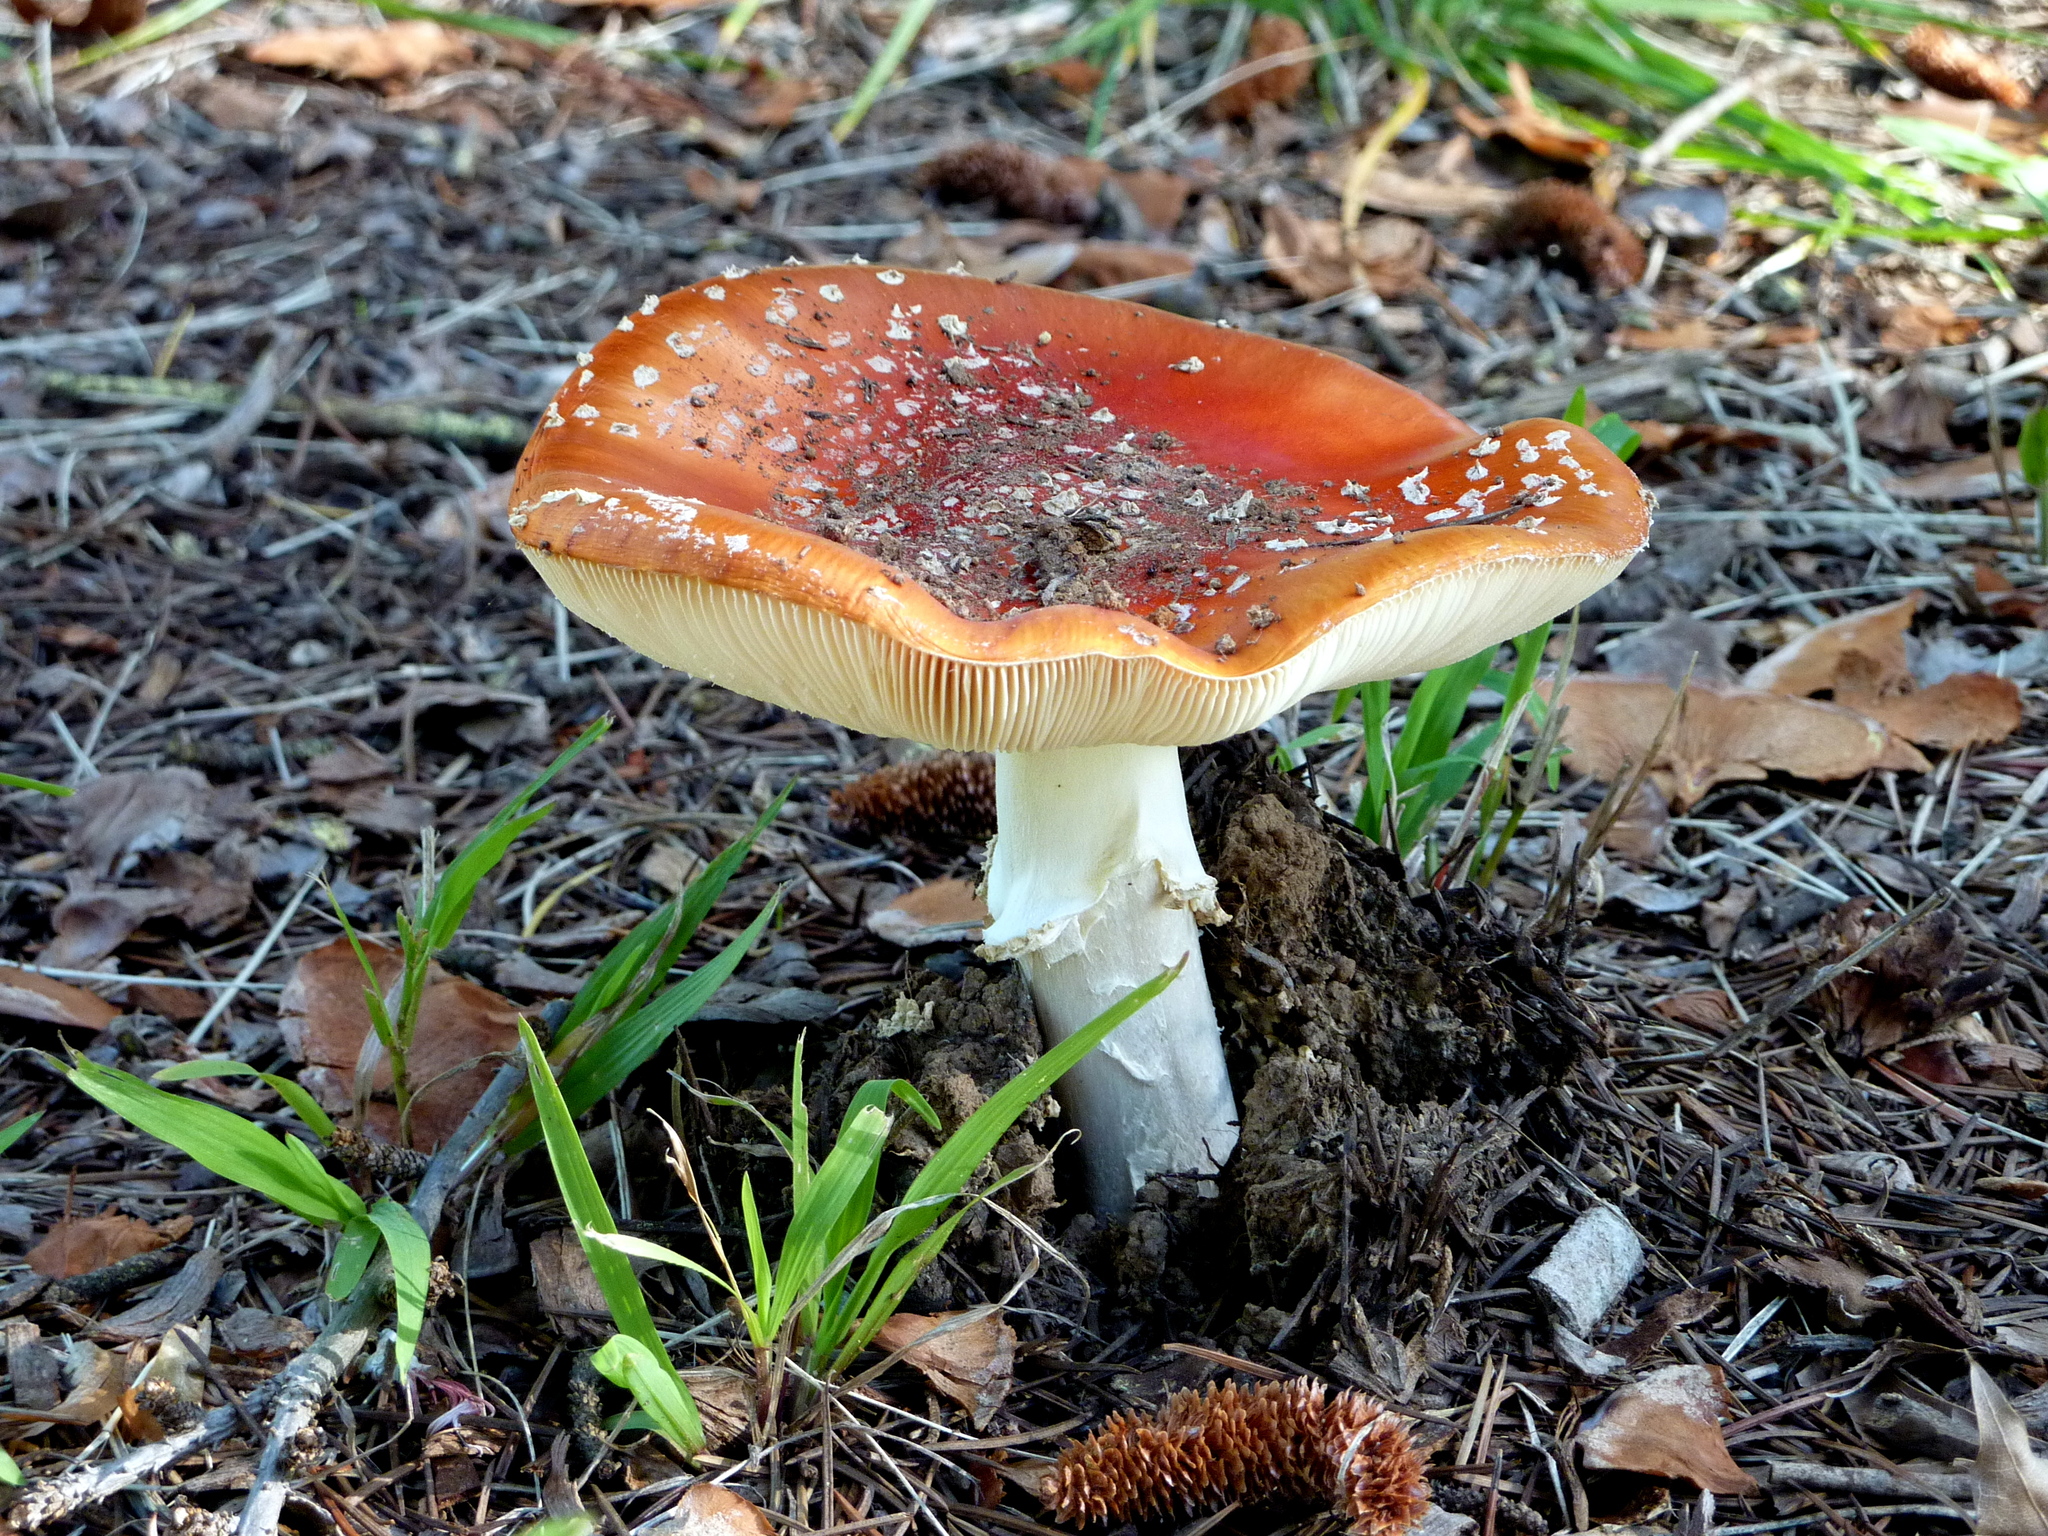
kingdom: Fungi
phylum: Basidiomycota
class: Agaricomycetes
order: Agaricales
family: Amanitaceae
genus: Amanita
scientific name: Amanita muscaria
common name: Fly agaric
